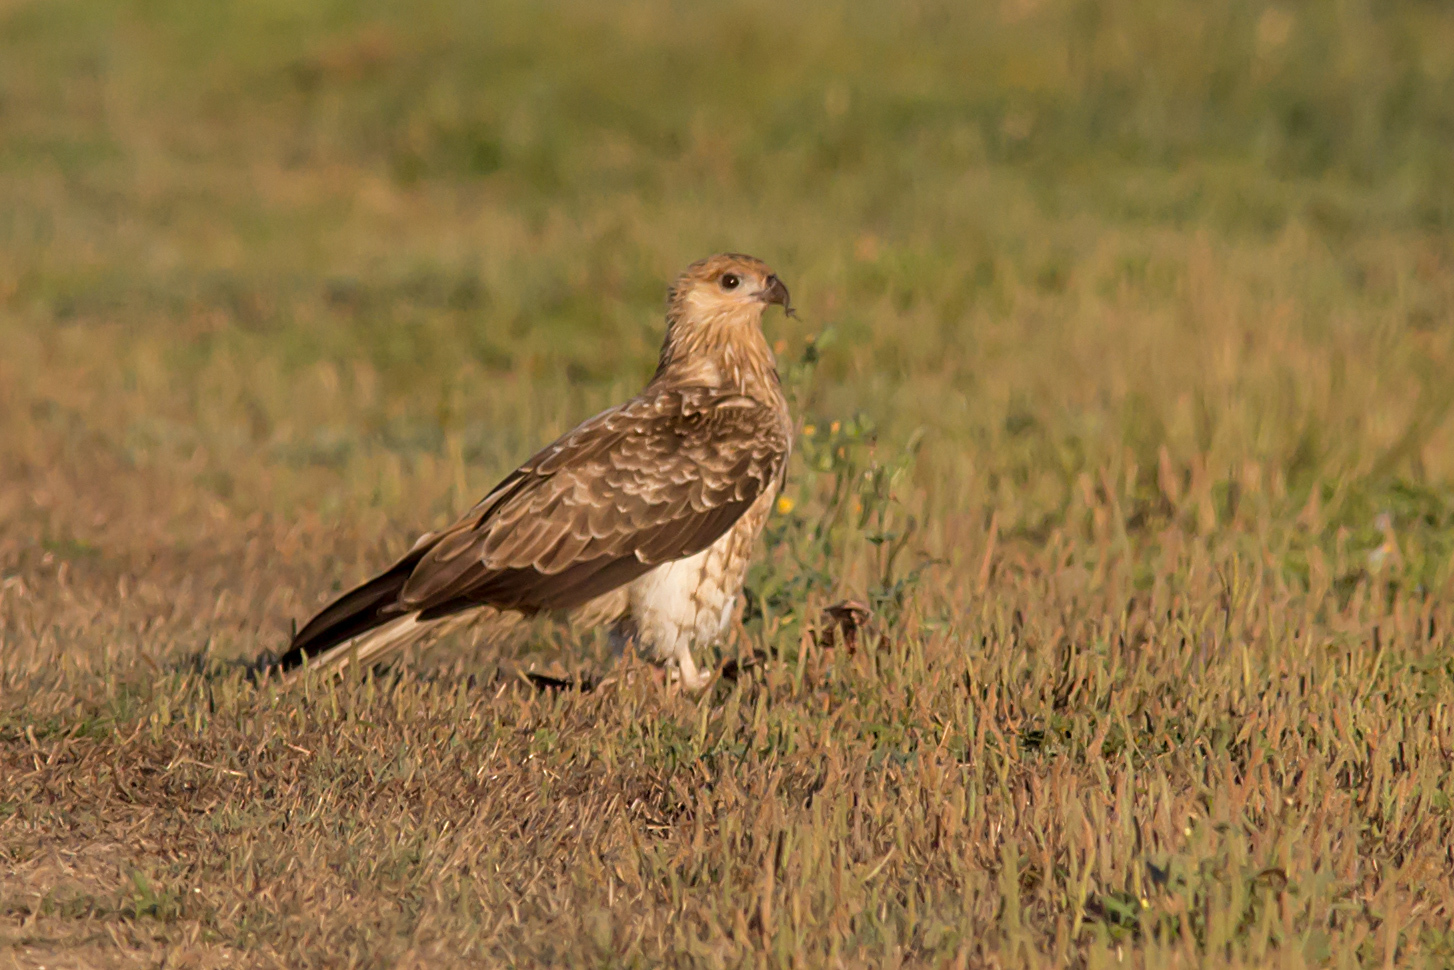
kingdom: Animalia
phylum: Chordata
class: Aves
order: Accipitriformes
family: Accipitridae
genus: Haliastur
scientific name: Haliastur sphenurus
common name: Whistling kite
